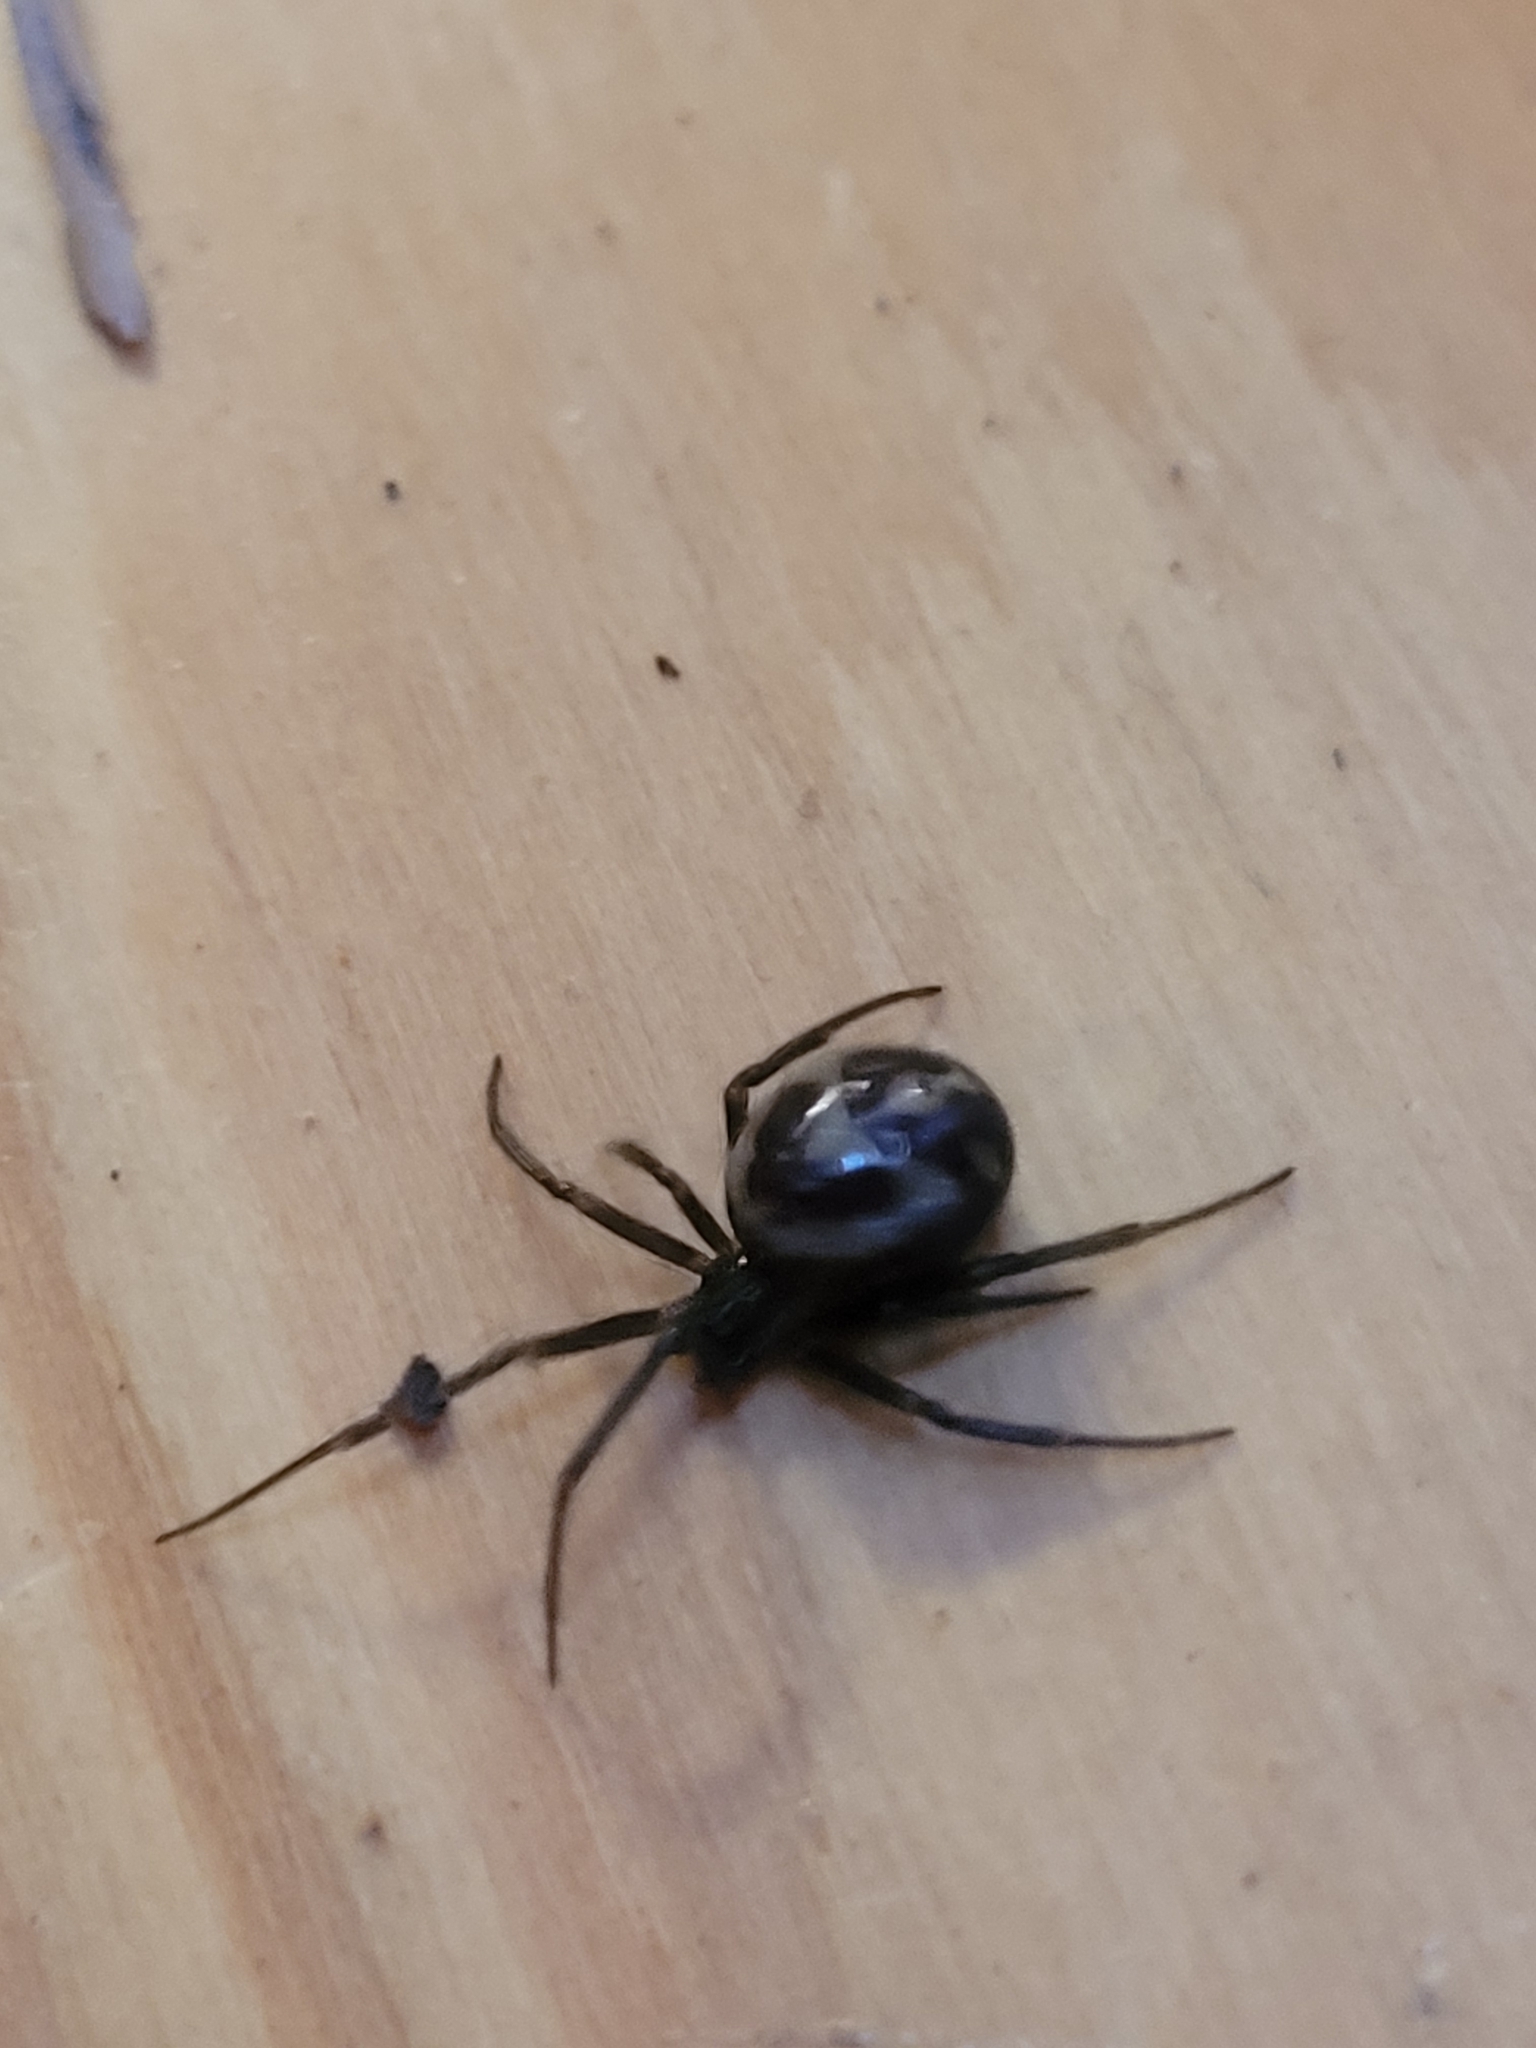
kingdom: Animalia
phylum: Arthropoda
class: Arachnida
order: Araneae
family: Theridiidae
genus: Steatoda
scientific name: Steatoda grossa
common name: False black widow
